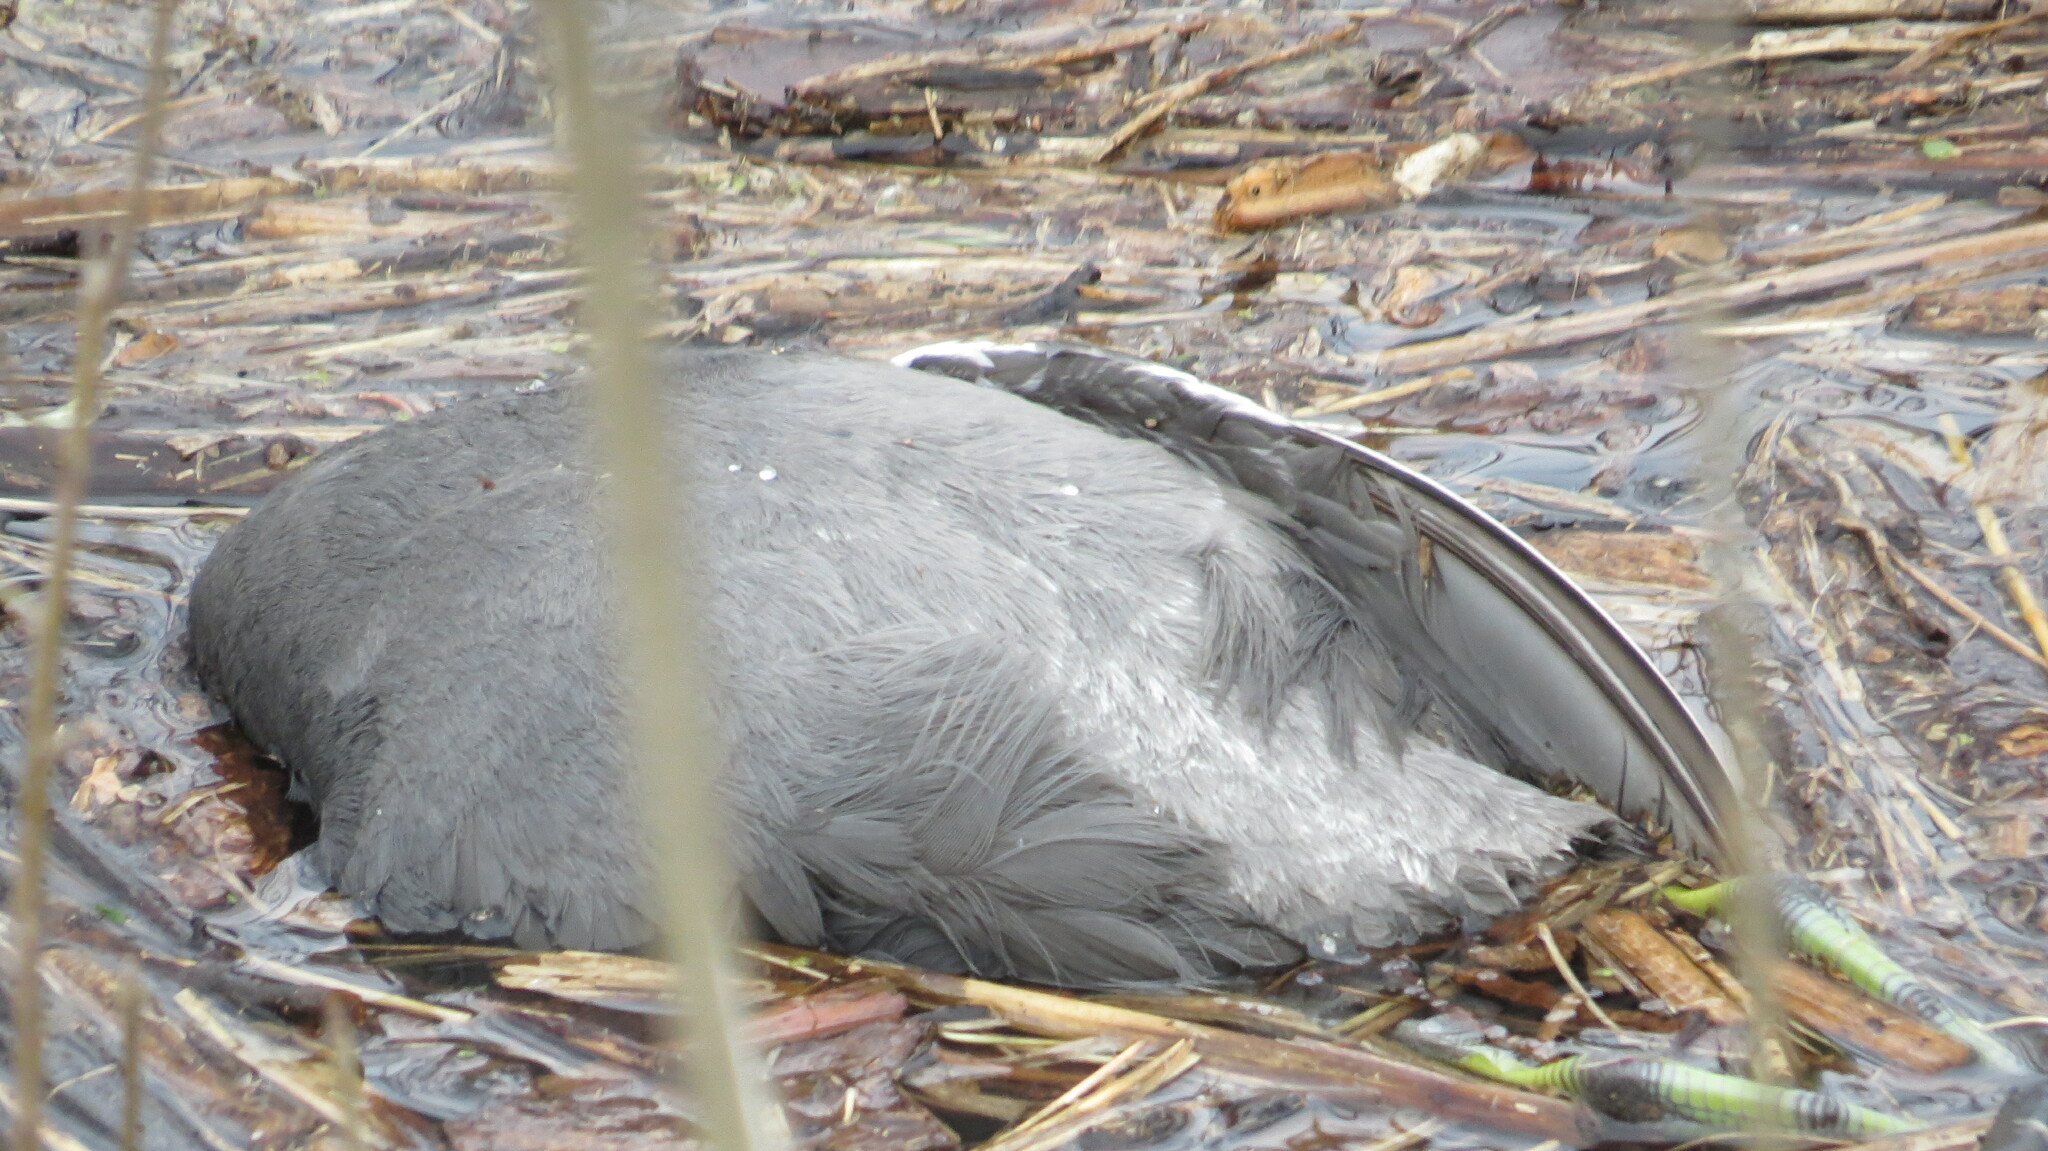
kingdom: Animalia
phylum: Chordata
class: Aves
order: Gruiformes
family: Rallidae
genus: Fulica
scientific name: Fulica americana
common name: American coot
